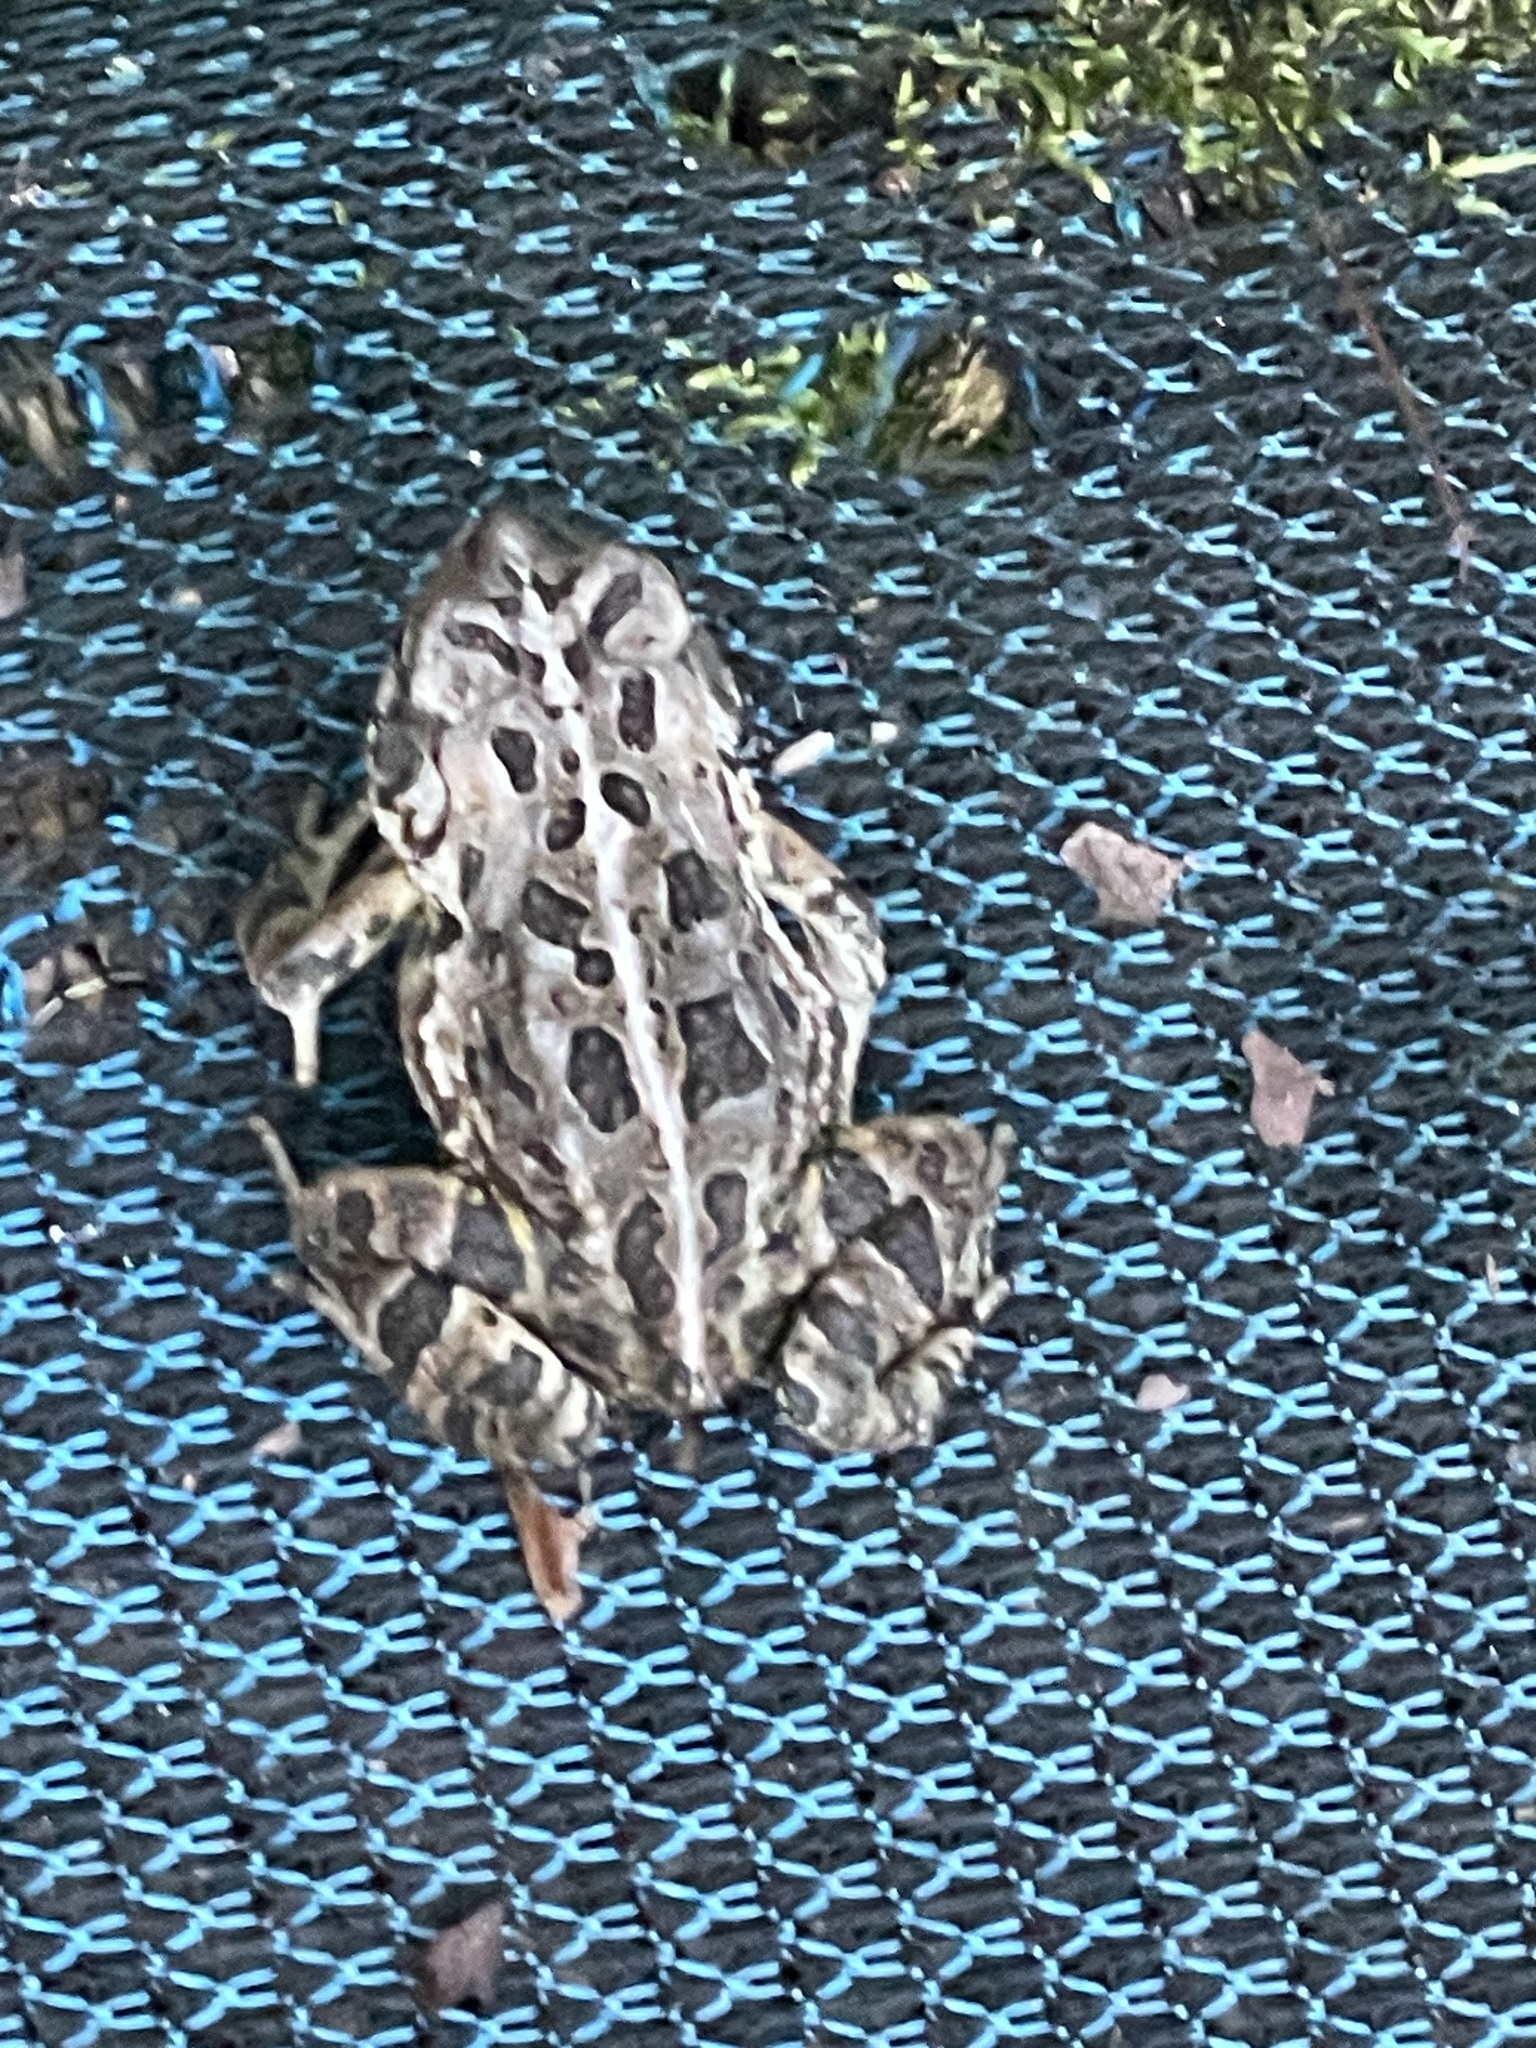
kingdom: Animalia
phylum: Chordata
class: Amphibia
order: Anura
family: Bufonidae
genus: Anaxyrus
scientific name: Anaxyrus fowleri
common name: Fowler's toad
